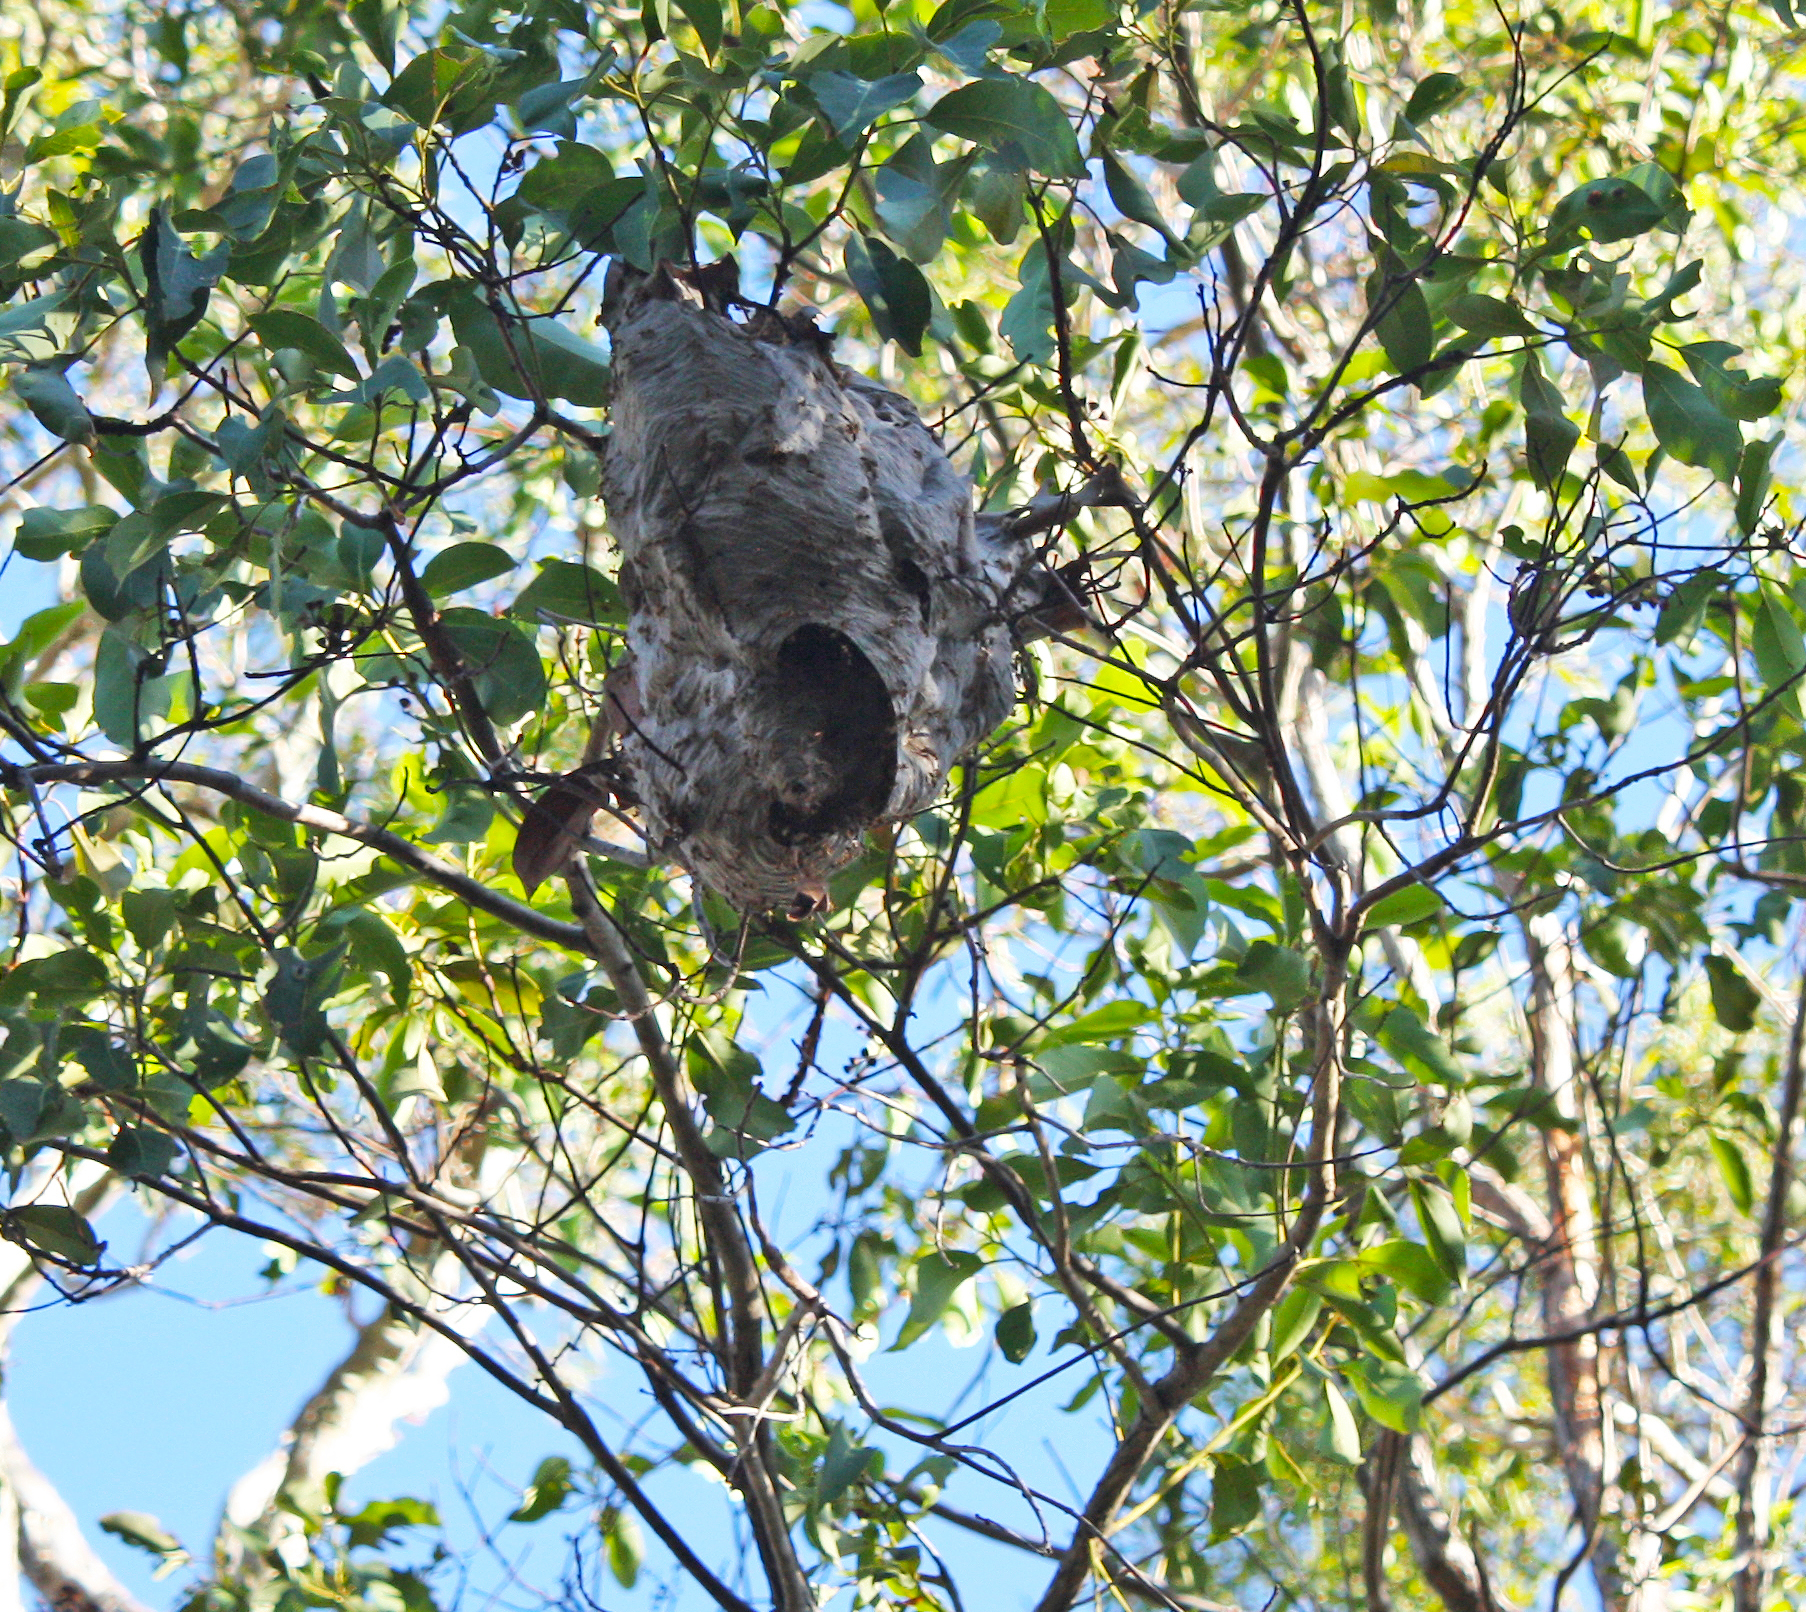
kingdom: Animalia
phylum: Arthropoda
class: Insecta
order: Hymenoptera
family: Vespidae
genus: Ropalidia
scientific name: Ropalidia romandi
